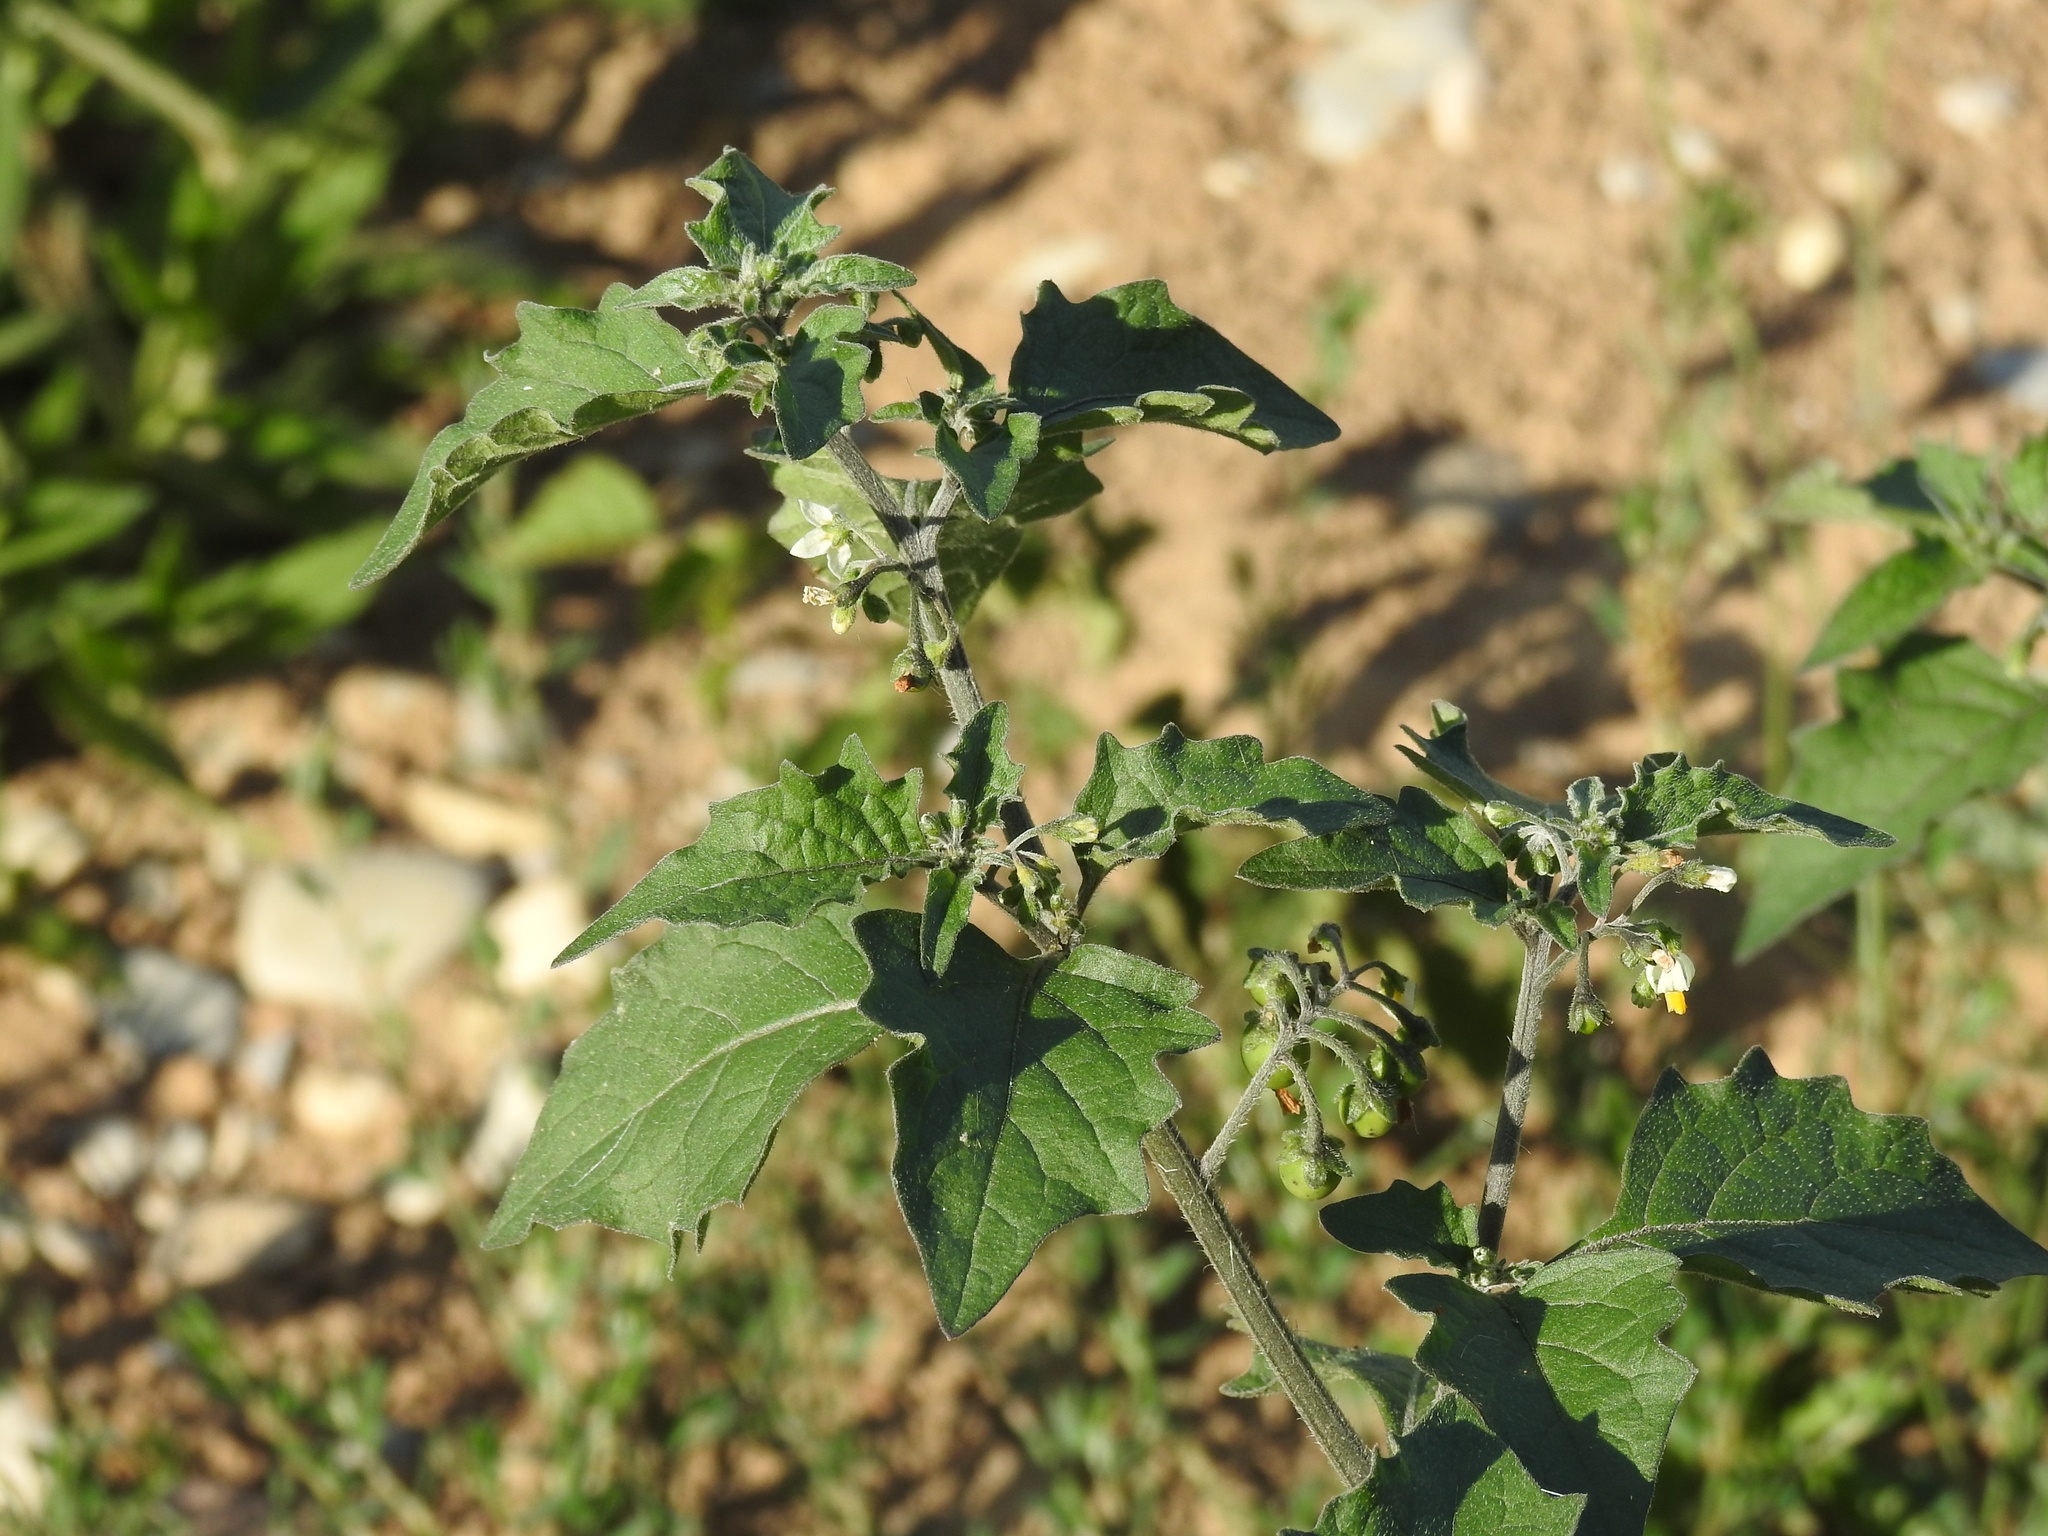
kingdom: Plantae
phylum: Tracheophyta
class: Magnoliopsida
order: Solanales
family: Solanaceae
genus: Solanum
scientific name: Solanum nigrum
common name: Black nightshade
